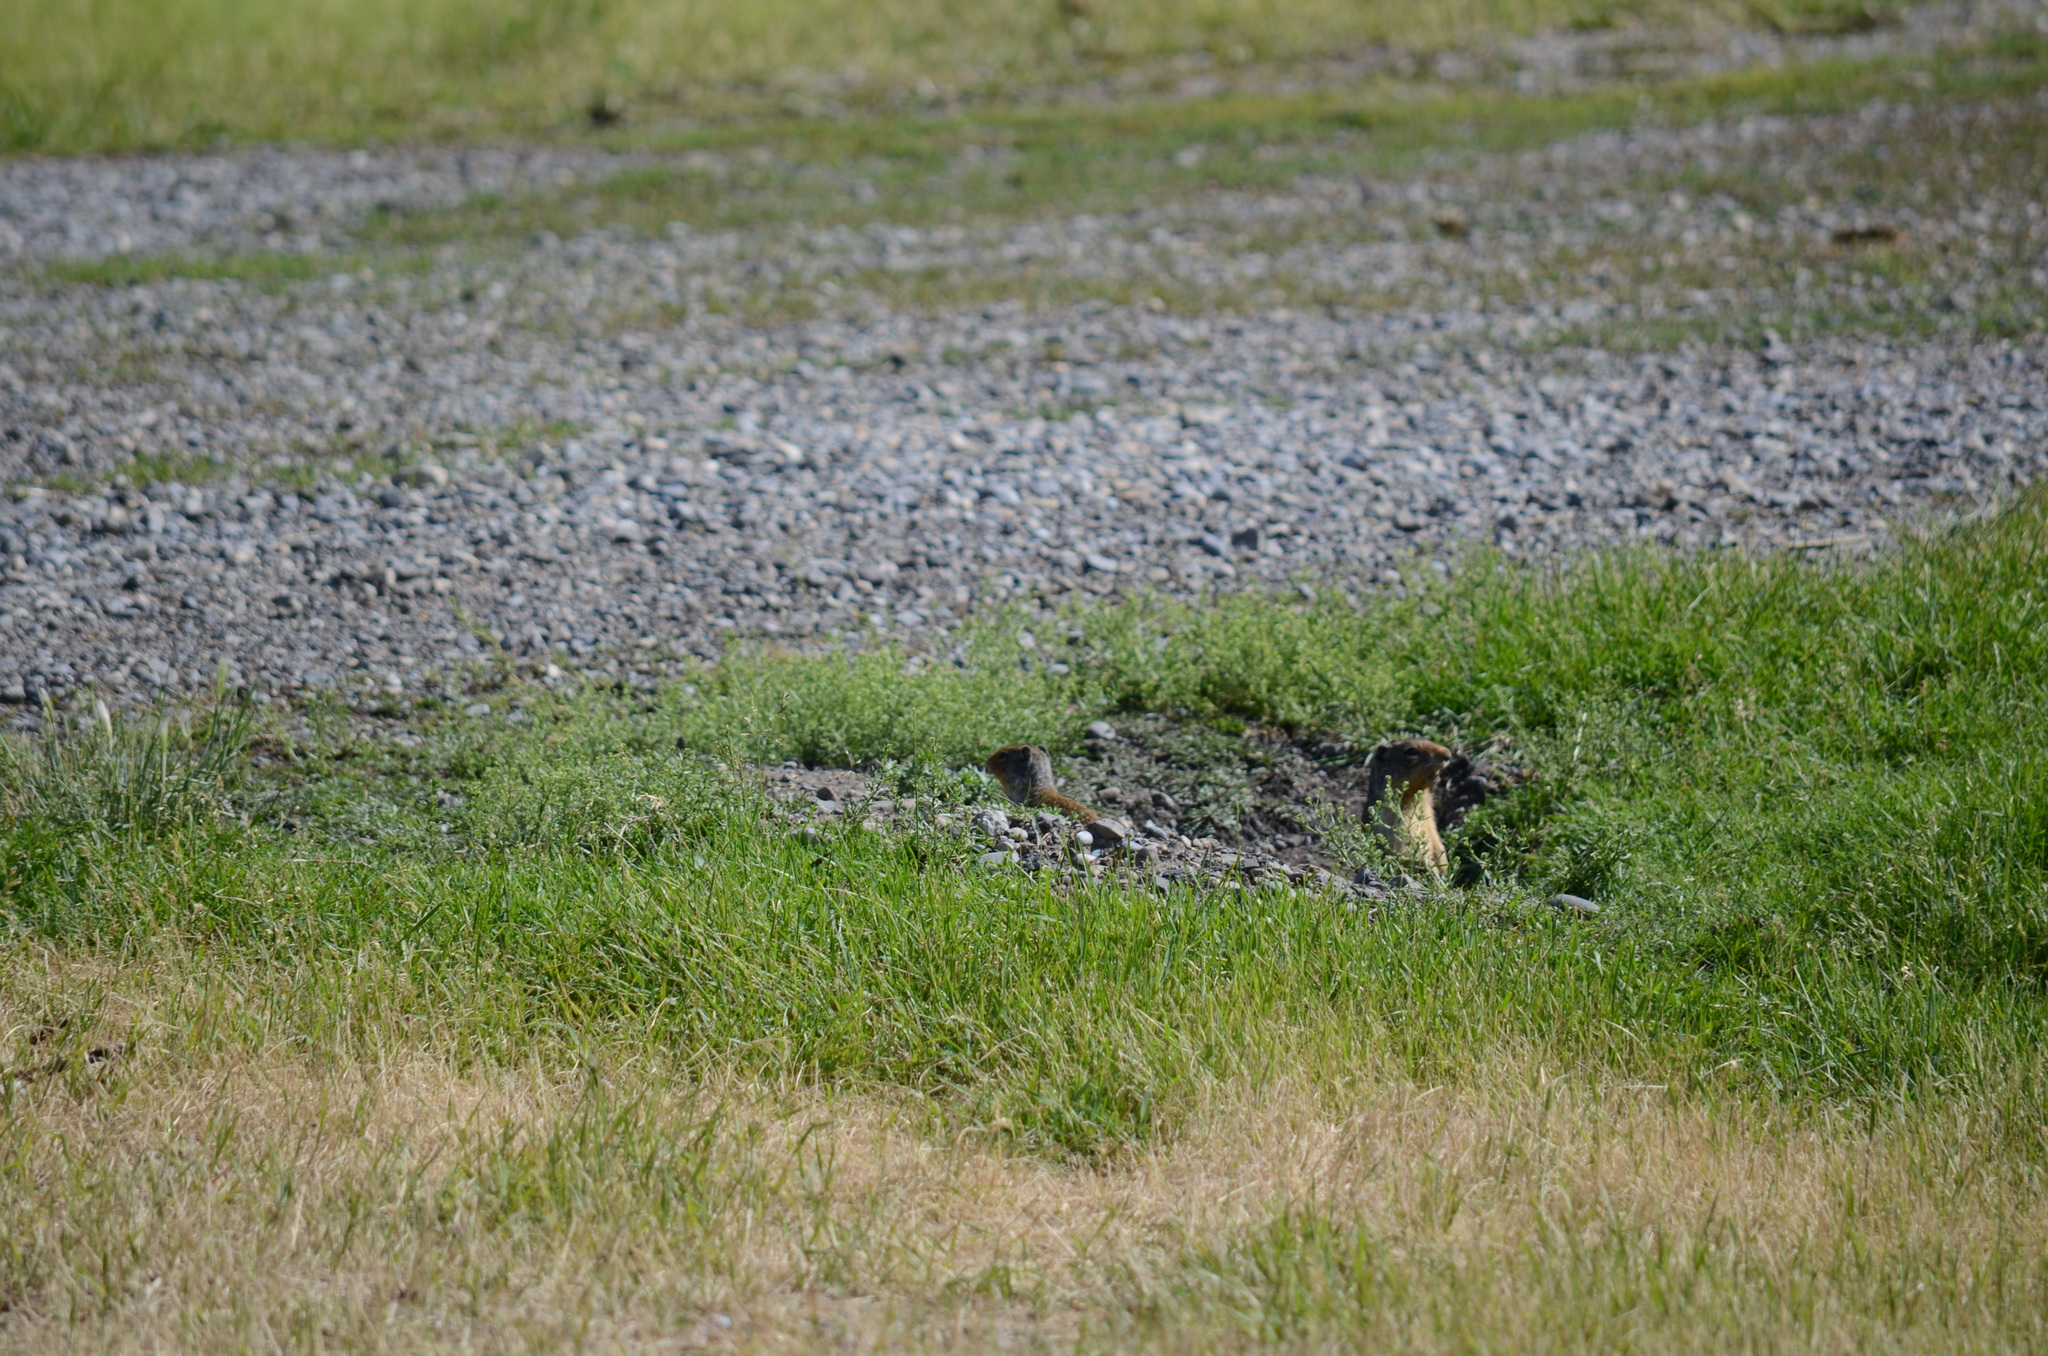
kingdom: Animalia
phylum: Chordata
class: Mammalia
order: Rodentia
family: Sciuridae
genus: Urocitellus
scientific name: Urocitellus columbianus
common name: Columbian ground squirrel
